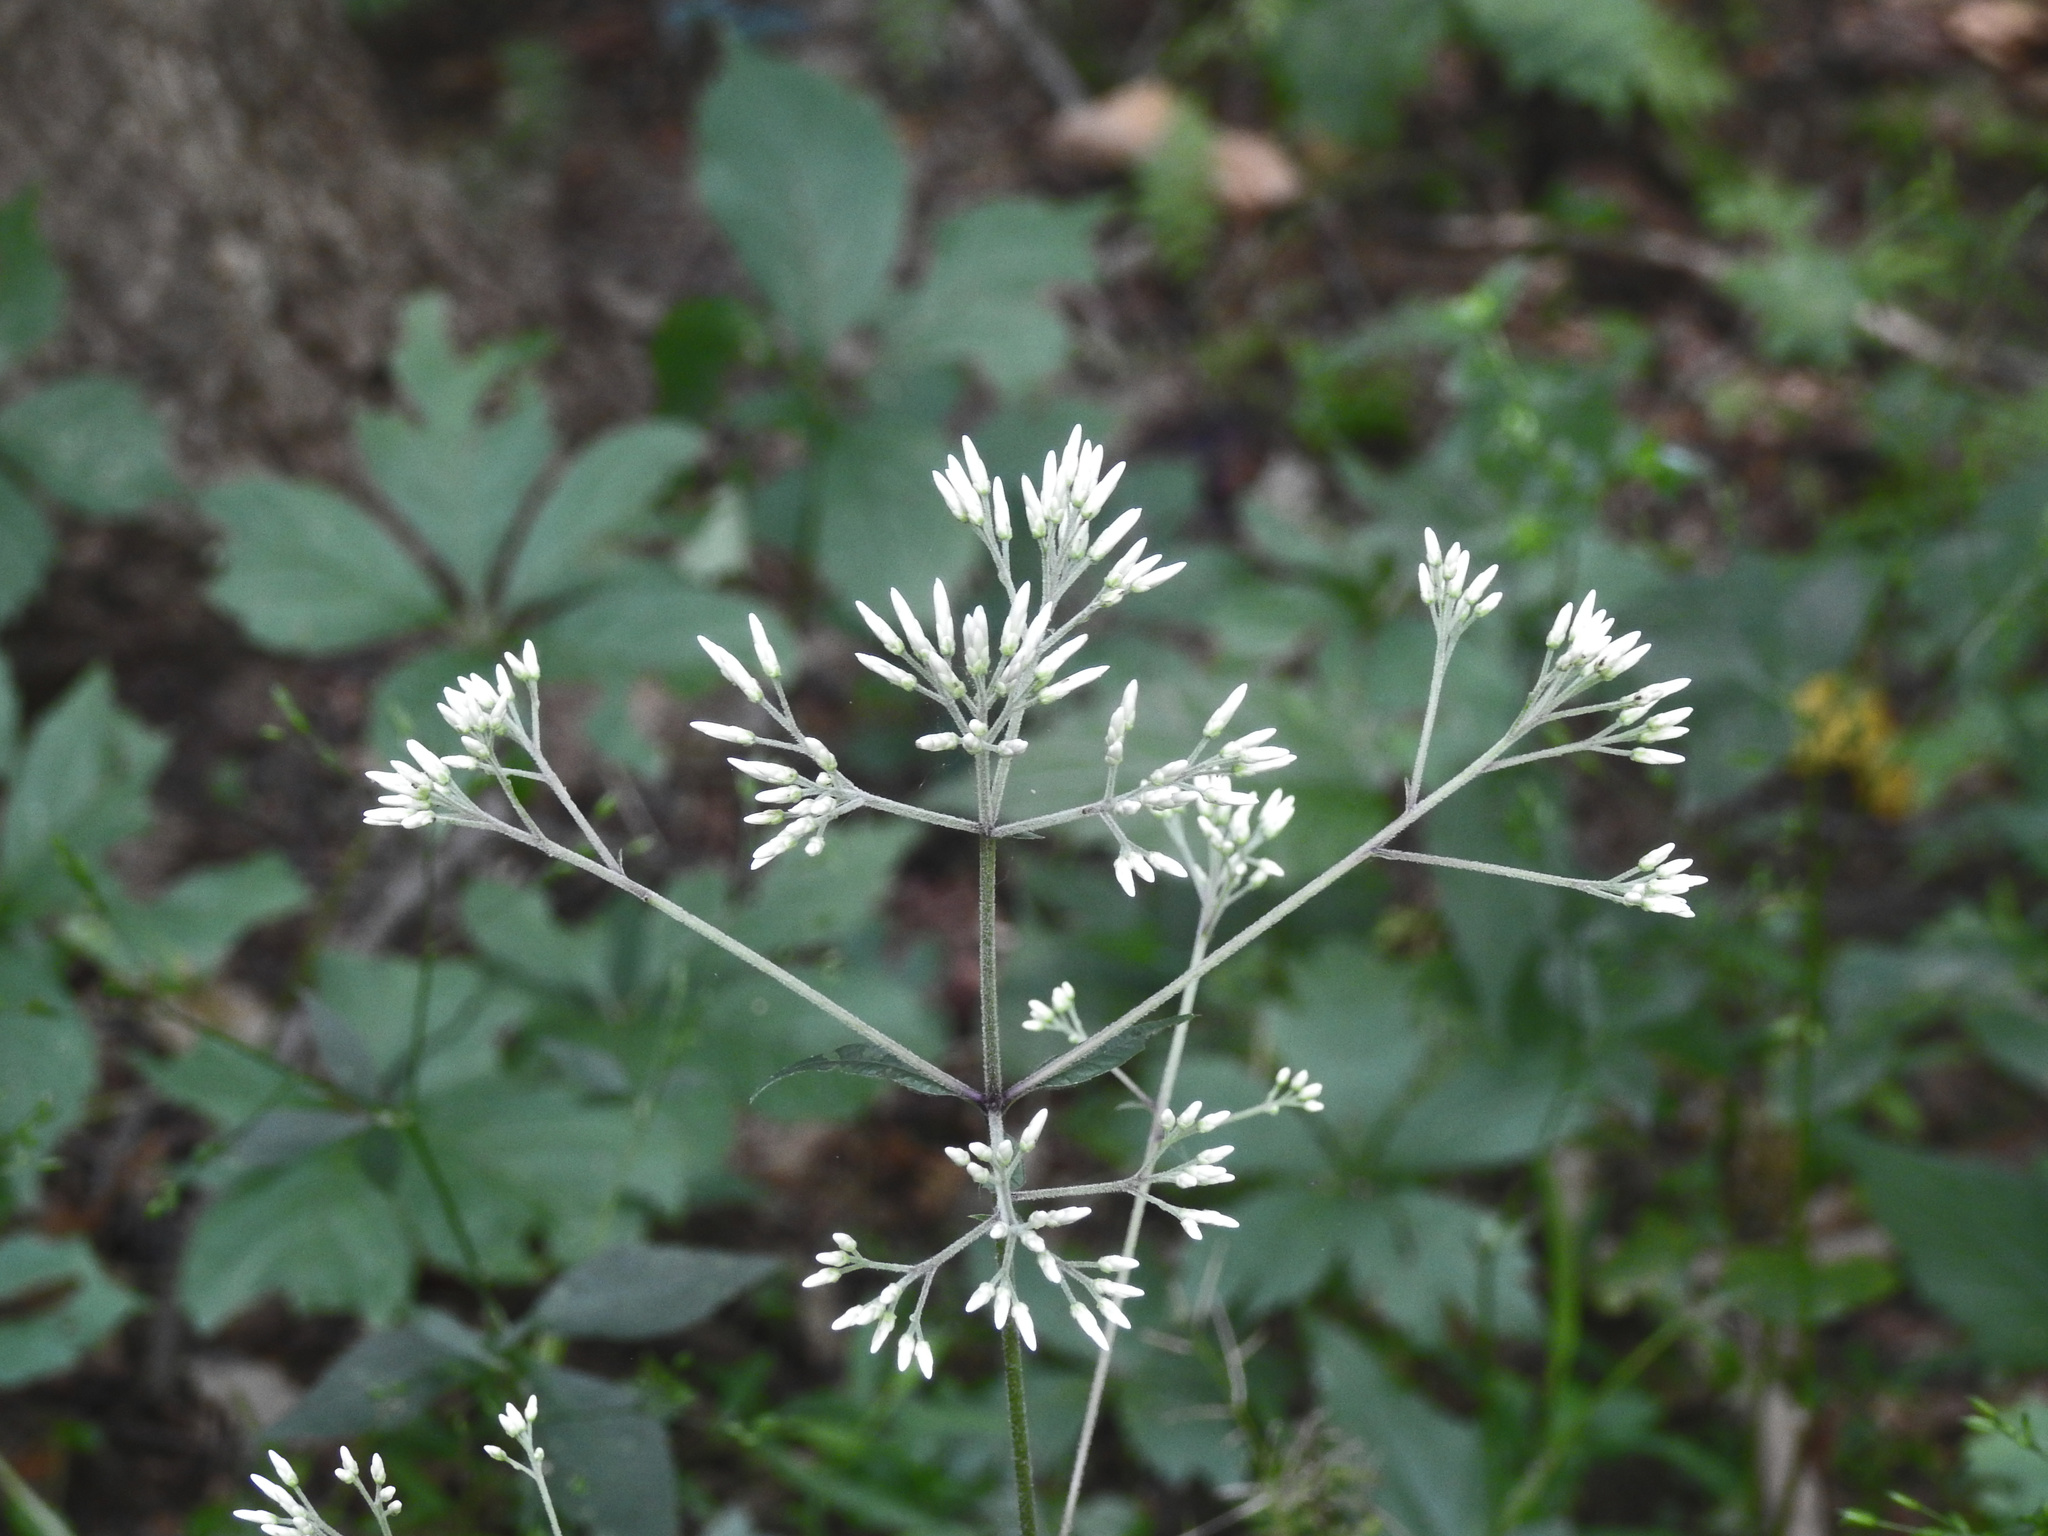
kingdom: Plantae
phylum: Tracheophyta
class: Magnoliopsida
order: Asterales
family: Asteraceae
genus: Eutrochium
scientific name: Eutrochium purpureum
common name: Gravelroot
